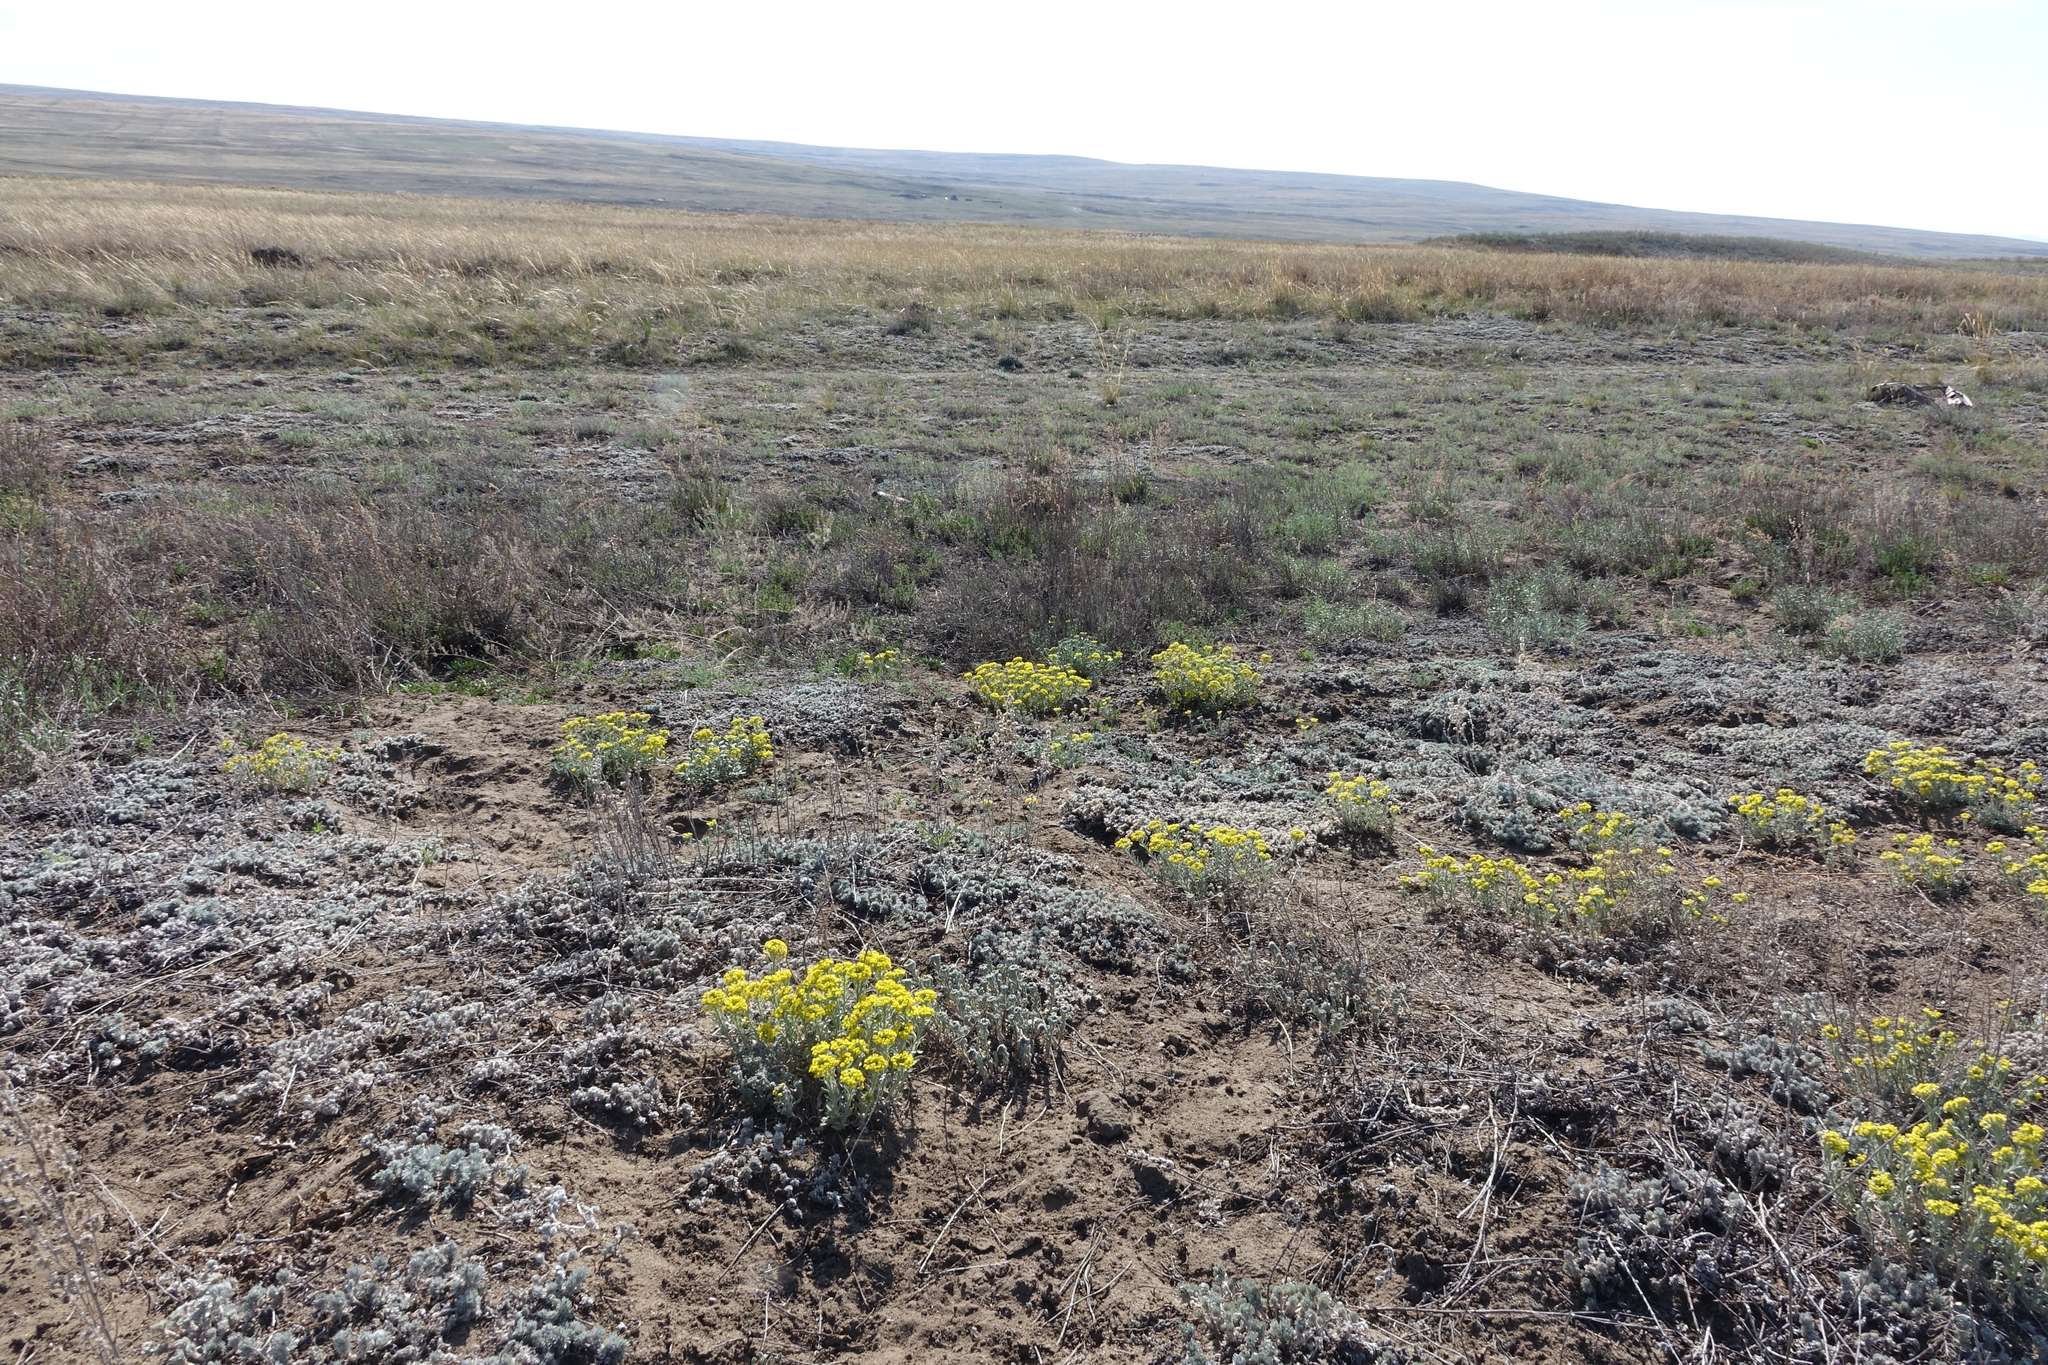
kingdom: Plantae
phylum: Tracheophyta
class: Magnoliopsida
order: Brassicales
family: Brassicaceae
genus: Alyssum
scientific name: Alyssum lenense
